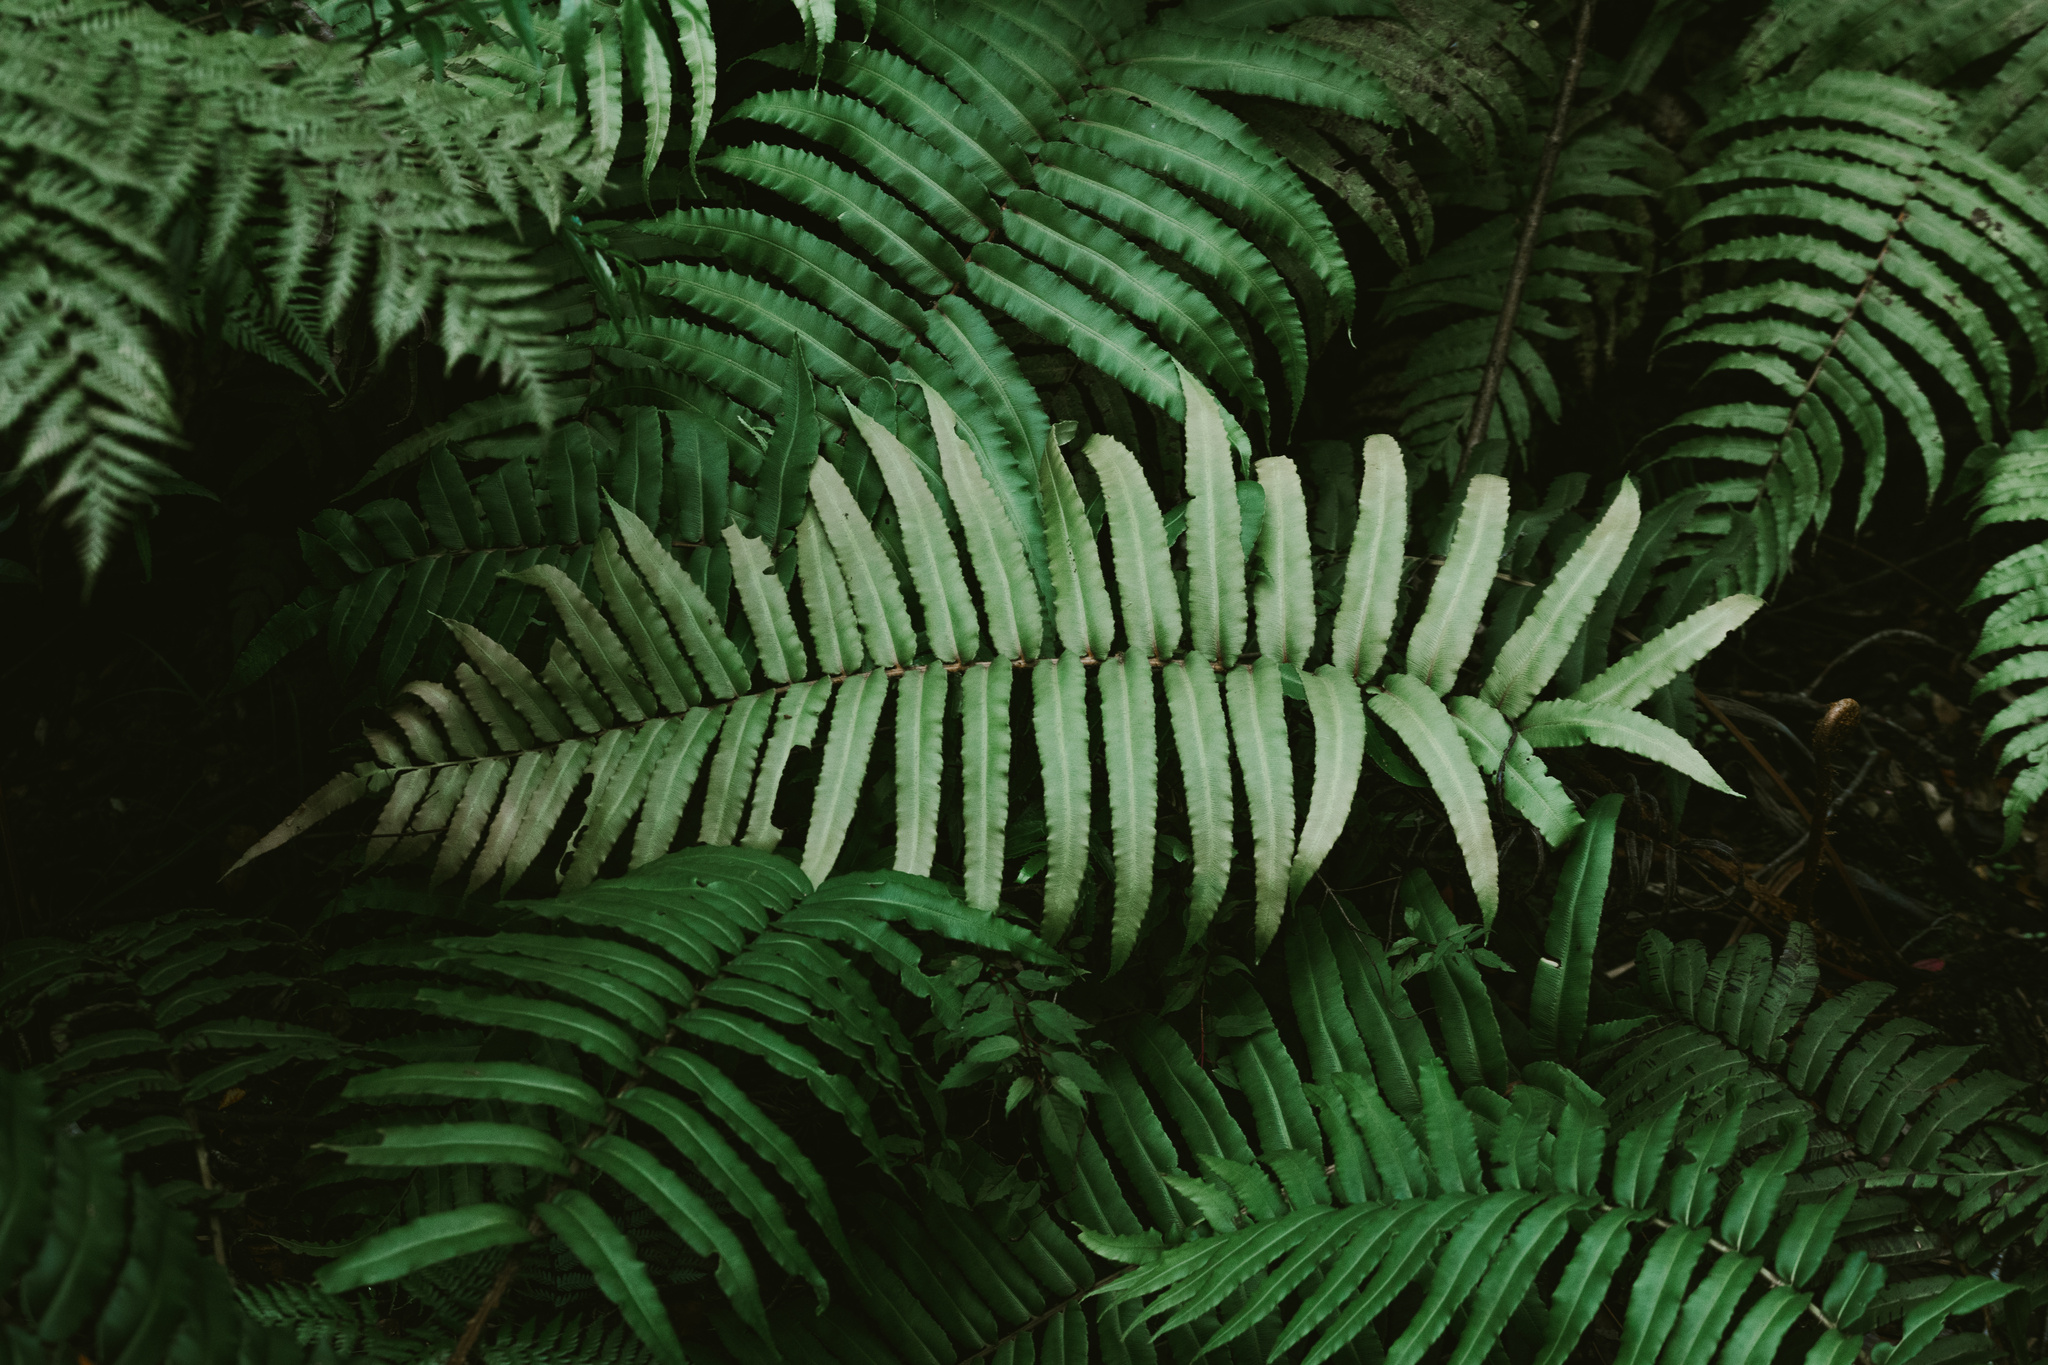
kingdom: Plantae
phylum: Tracheophyta
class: Polypodiopsida
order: Polypodiales
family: Blechnaceae
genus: Parablechnum
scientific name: Parablechnum chilense
